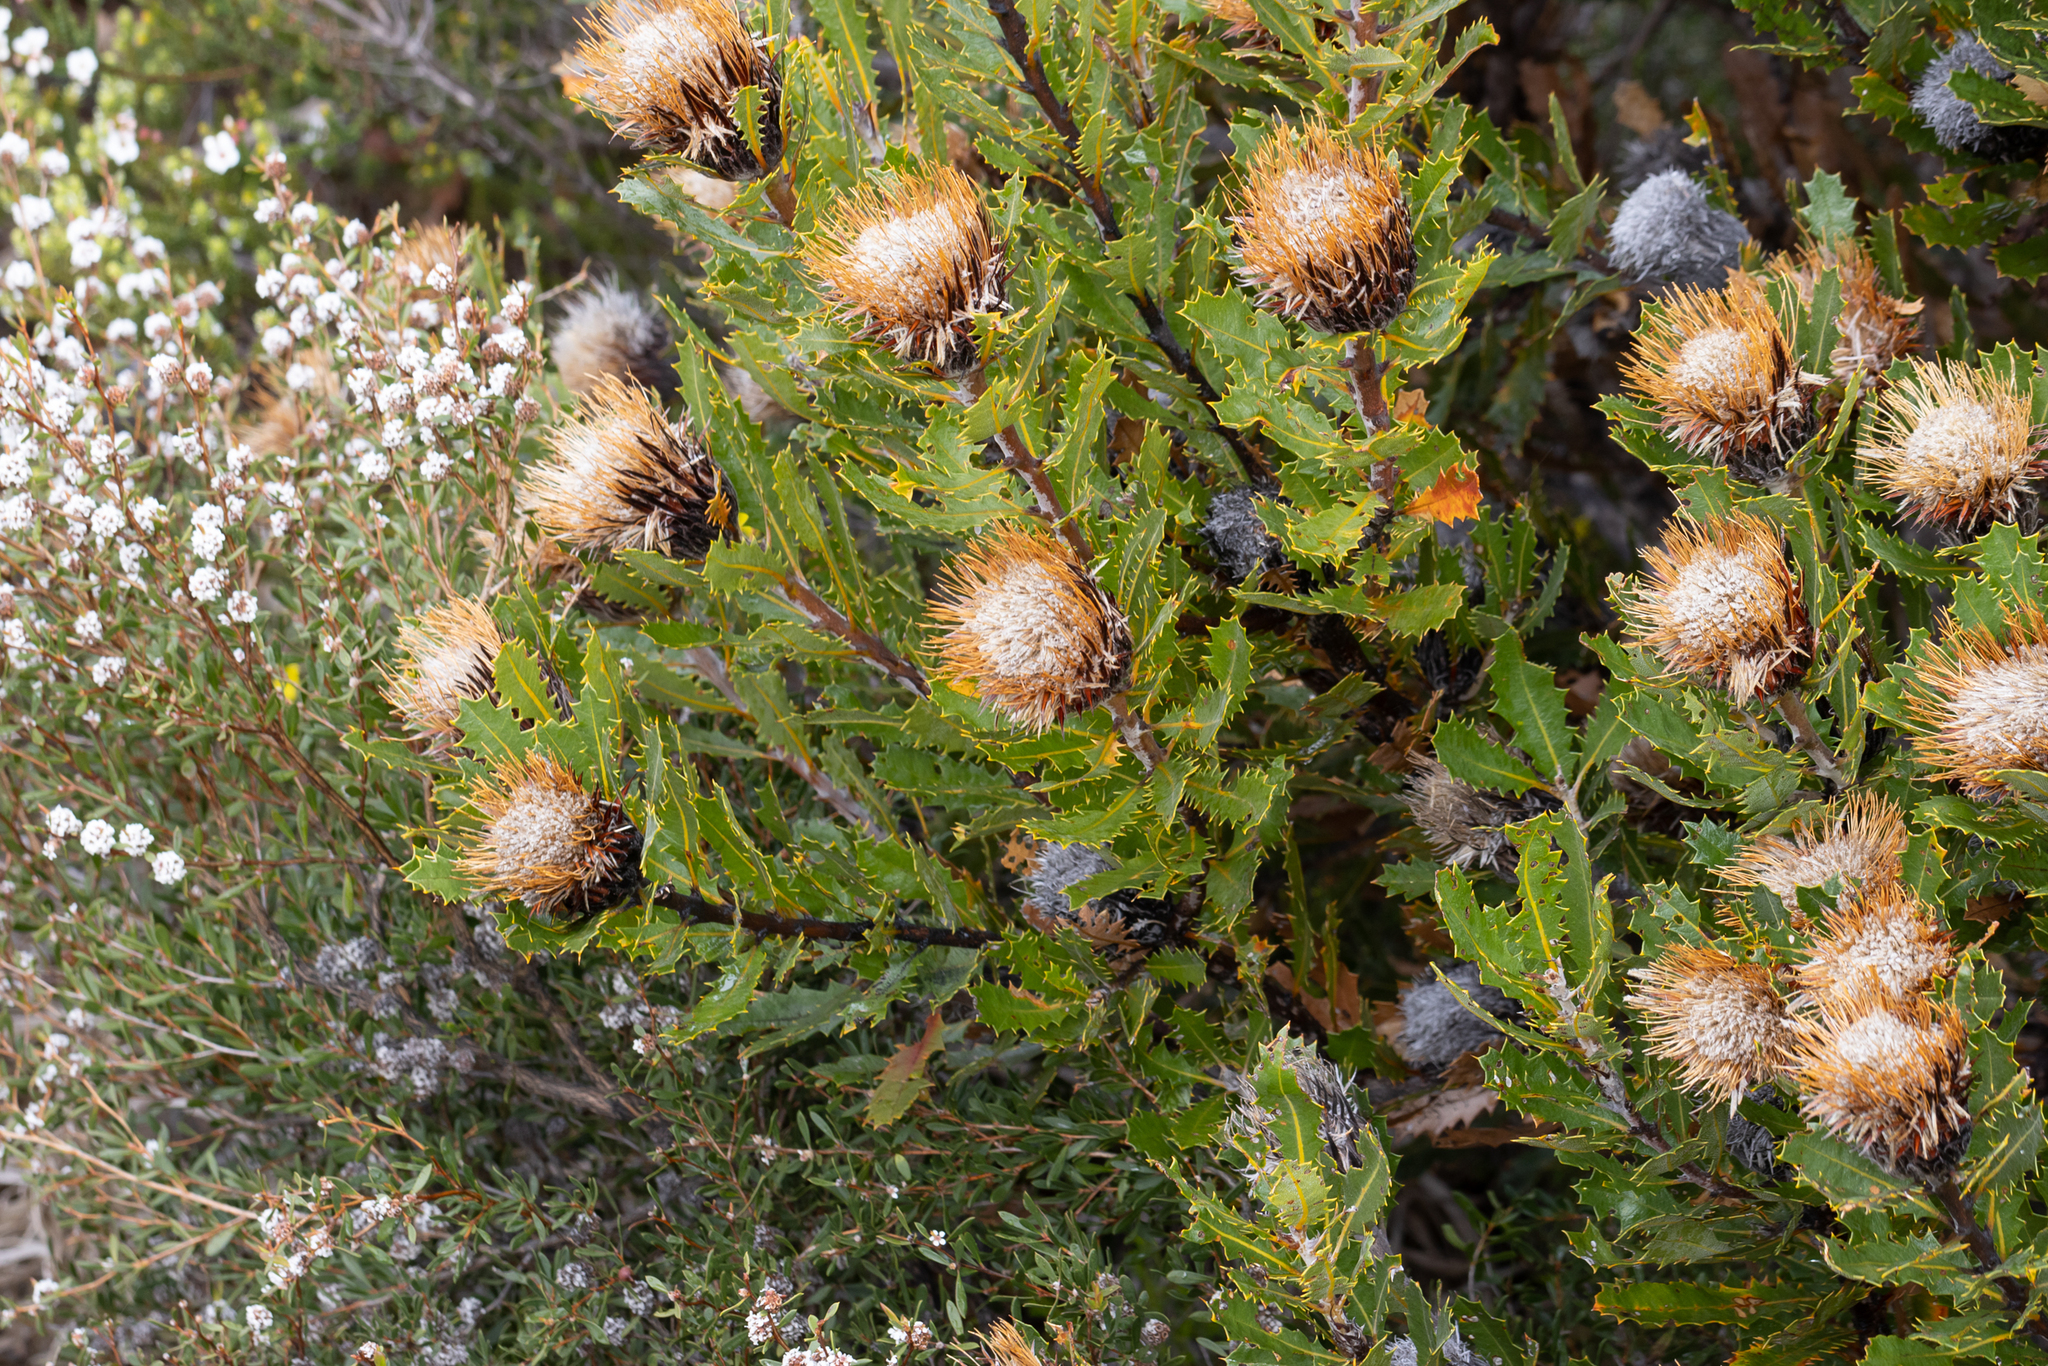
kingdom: Plantae
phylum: Tracheophyta
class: Magnoliopsida
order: Proteales
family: Proteaceae
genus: Banksia
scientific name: Banksia heliantha
